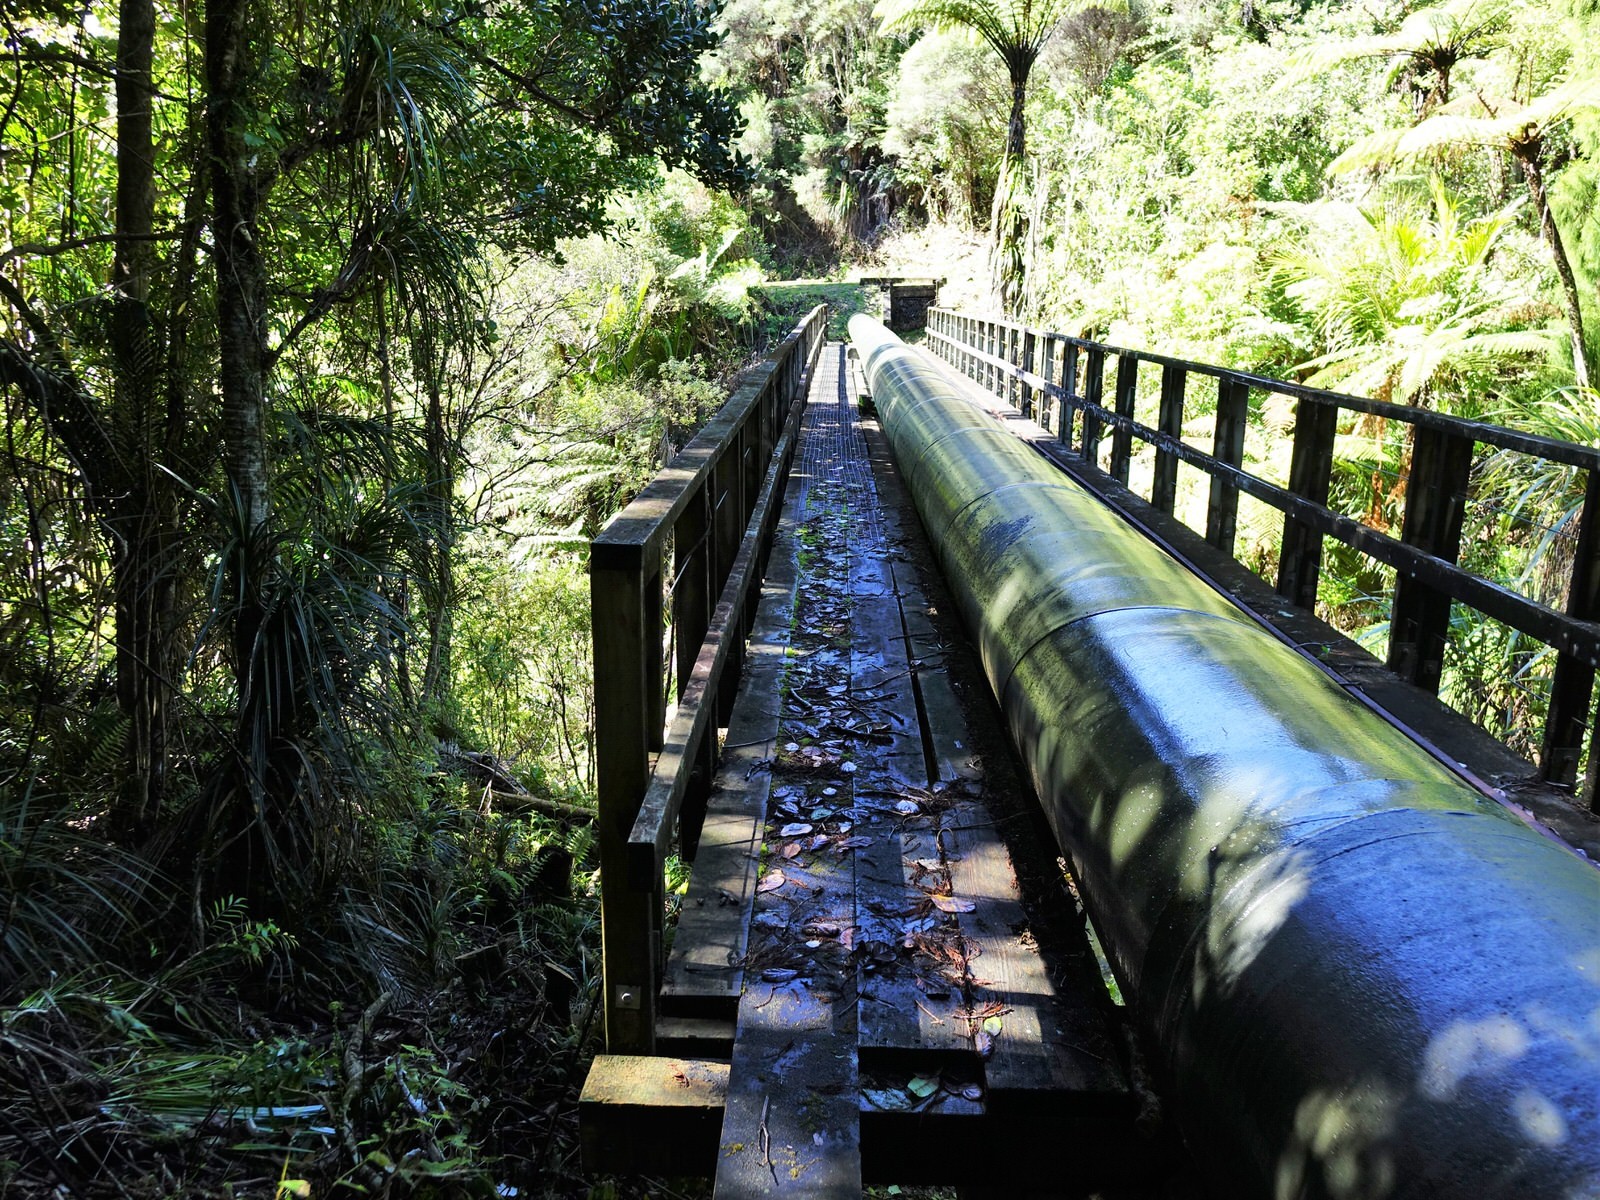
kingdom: Animalia
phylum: Chordata
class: Mammalia
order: Diprotodontia
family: Phalangeridae
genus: Trichosurus
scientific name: Trichosurus vulpecula
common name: Common brushtail
